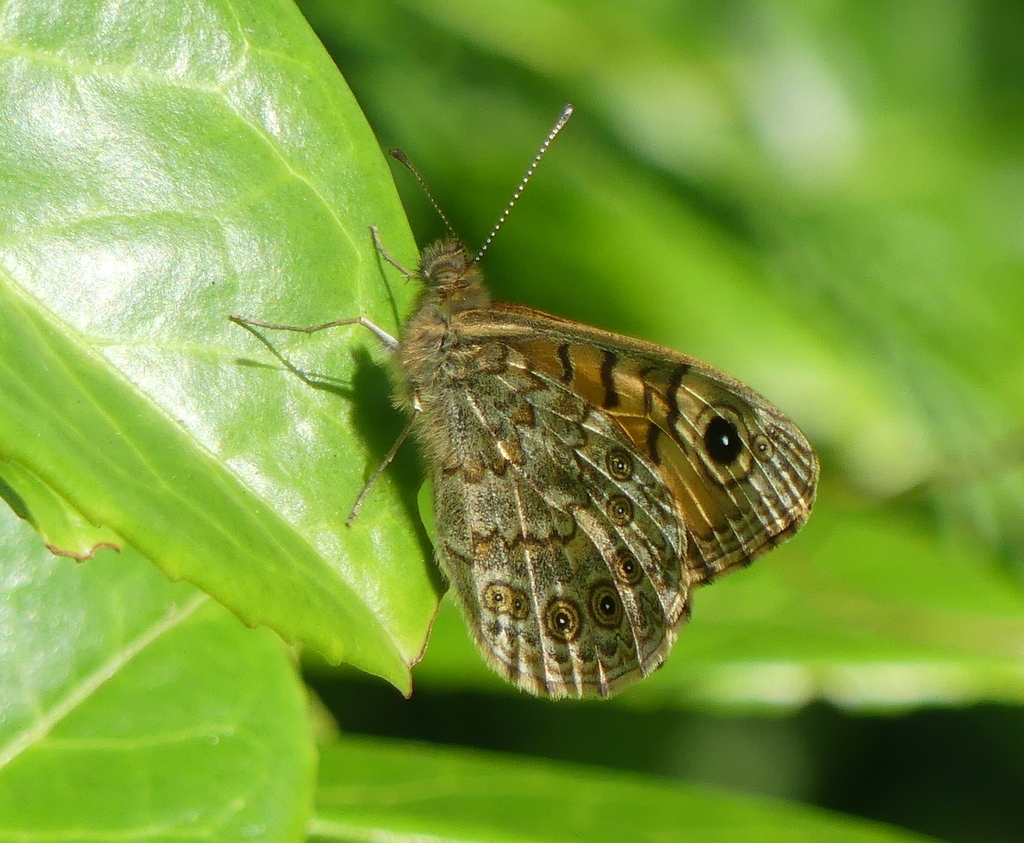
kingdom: Animalia
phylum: Arthropoda
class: Insecta
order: Lepidoptera
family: Nymphalidae
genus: Pararge
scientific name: Pararge Lasiommata megera
